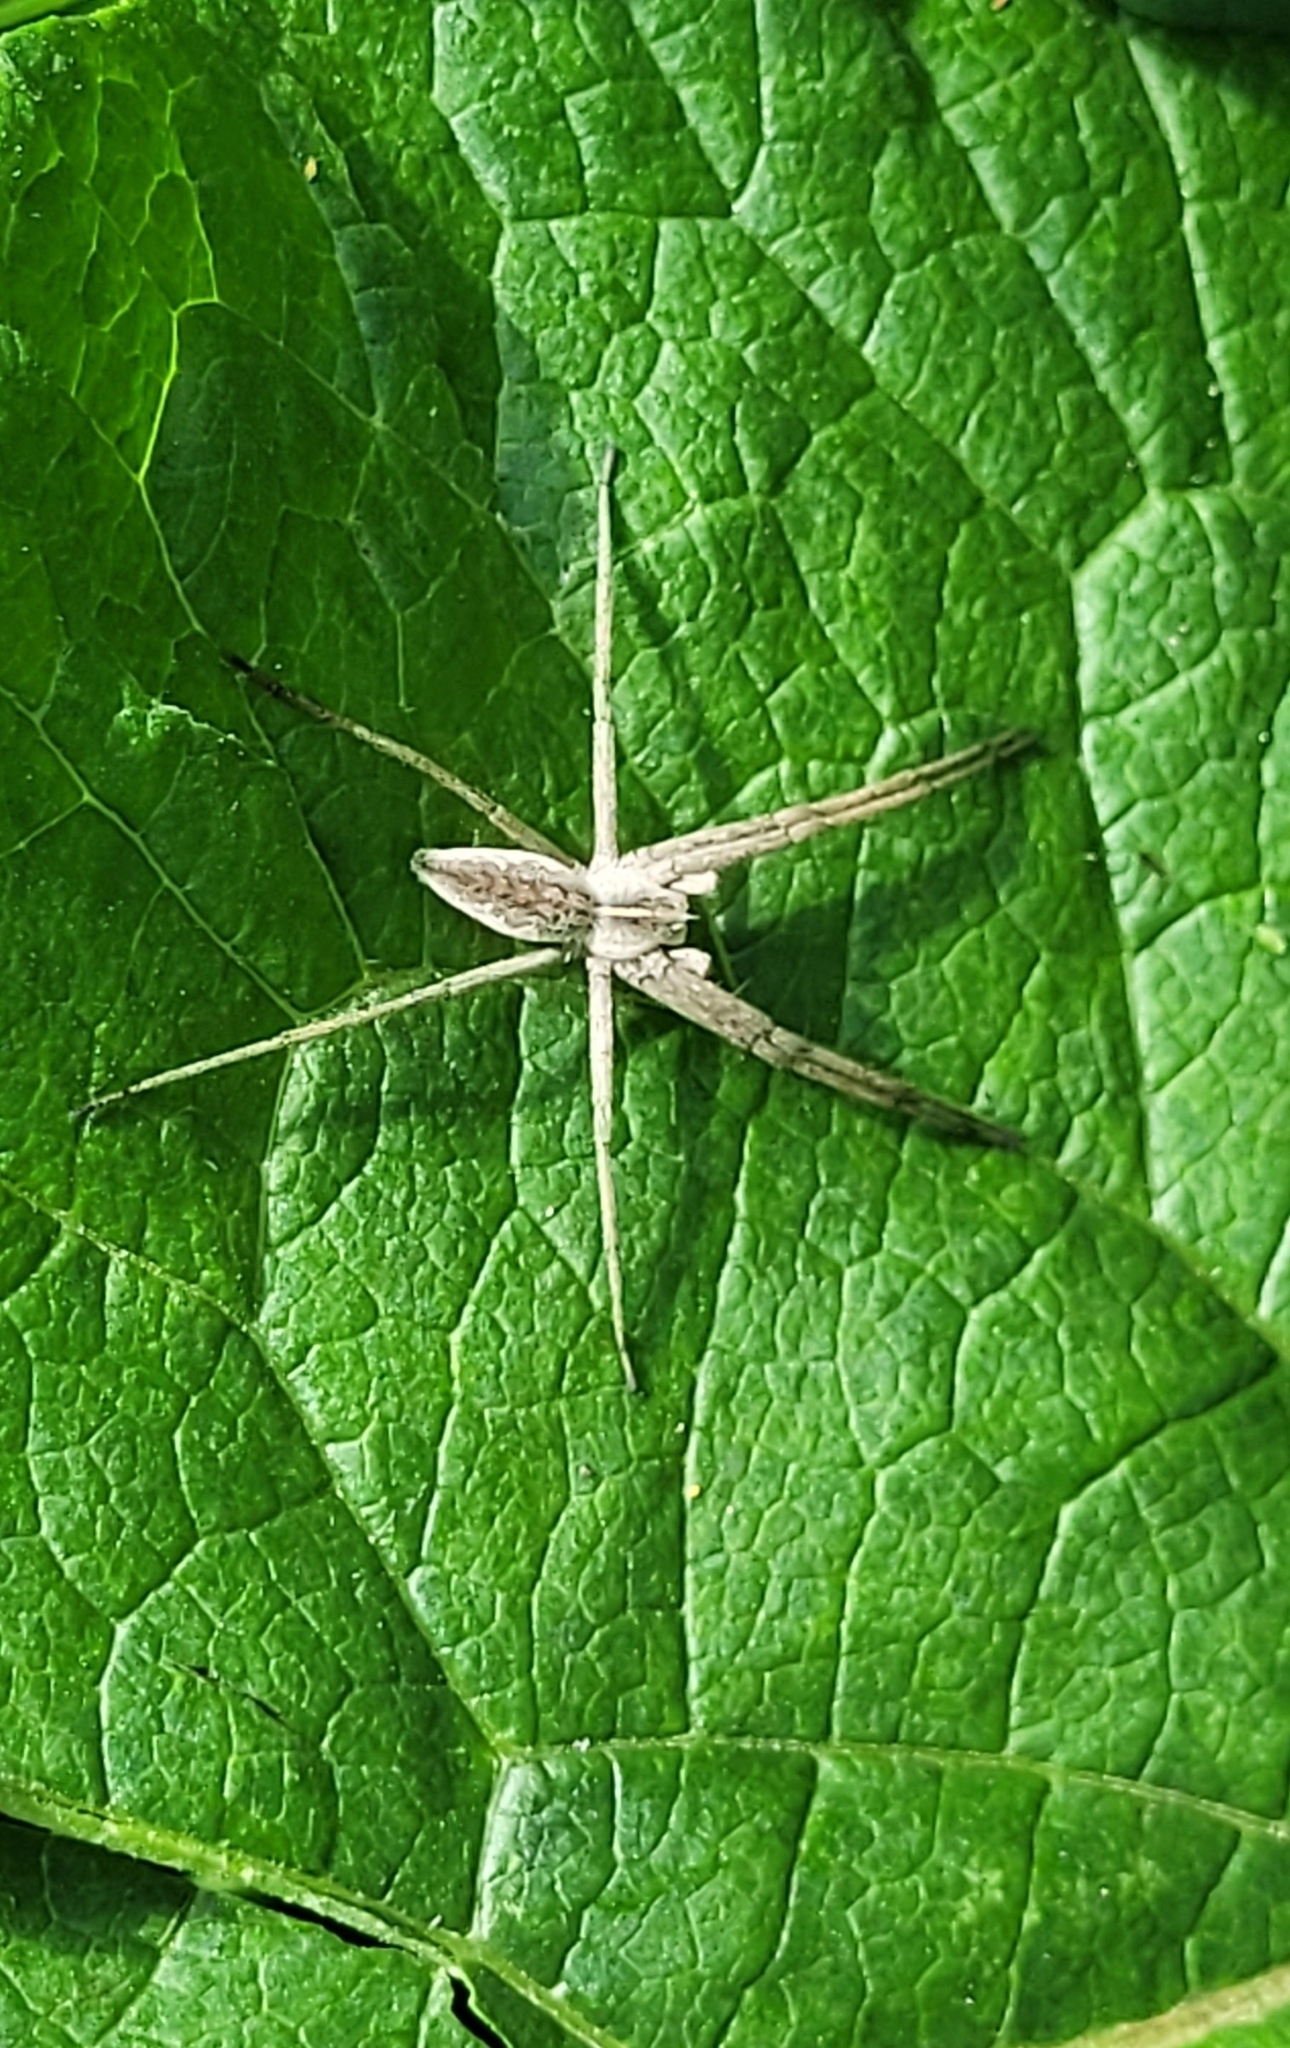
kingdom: Animalia
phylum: Arthropoda
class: Arachnida
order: Araneae
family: Pisauridae
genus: Pisaura
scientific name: Pisaura mirabilis
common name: Tent spider
